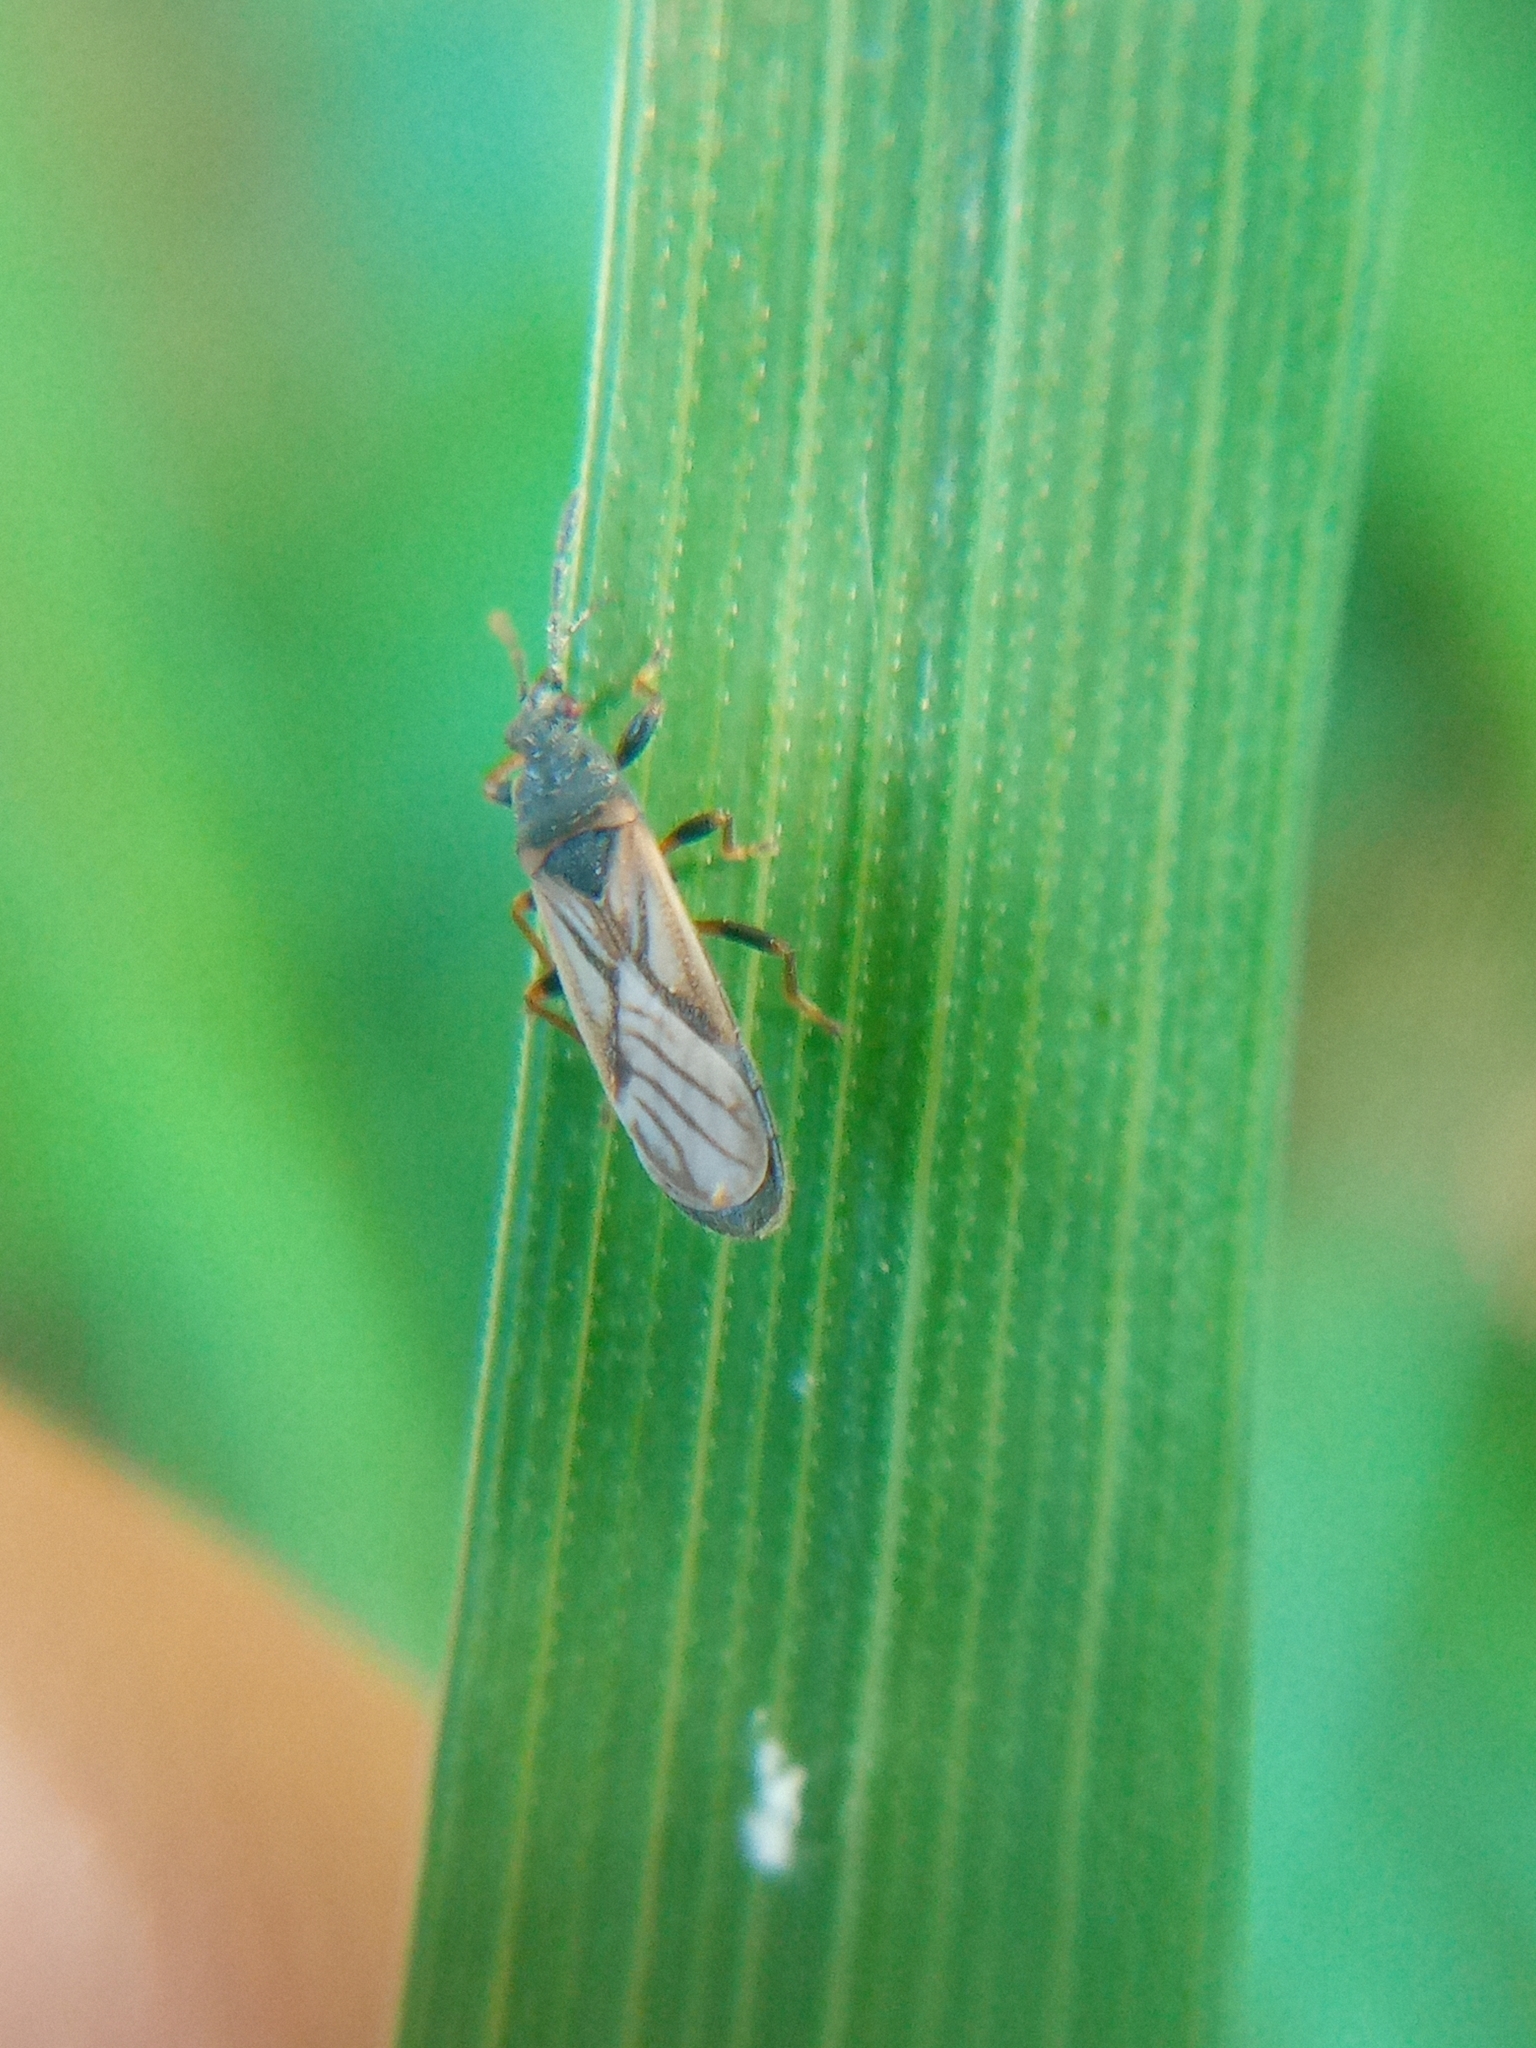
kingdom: Animalia
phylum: Arthropoda
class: Insecta
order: Hemiptera
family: Blissidae
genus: Ischnodemus
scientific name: Ischnodemus sabuleti
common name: European cinchbug
